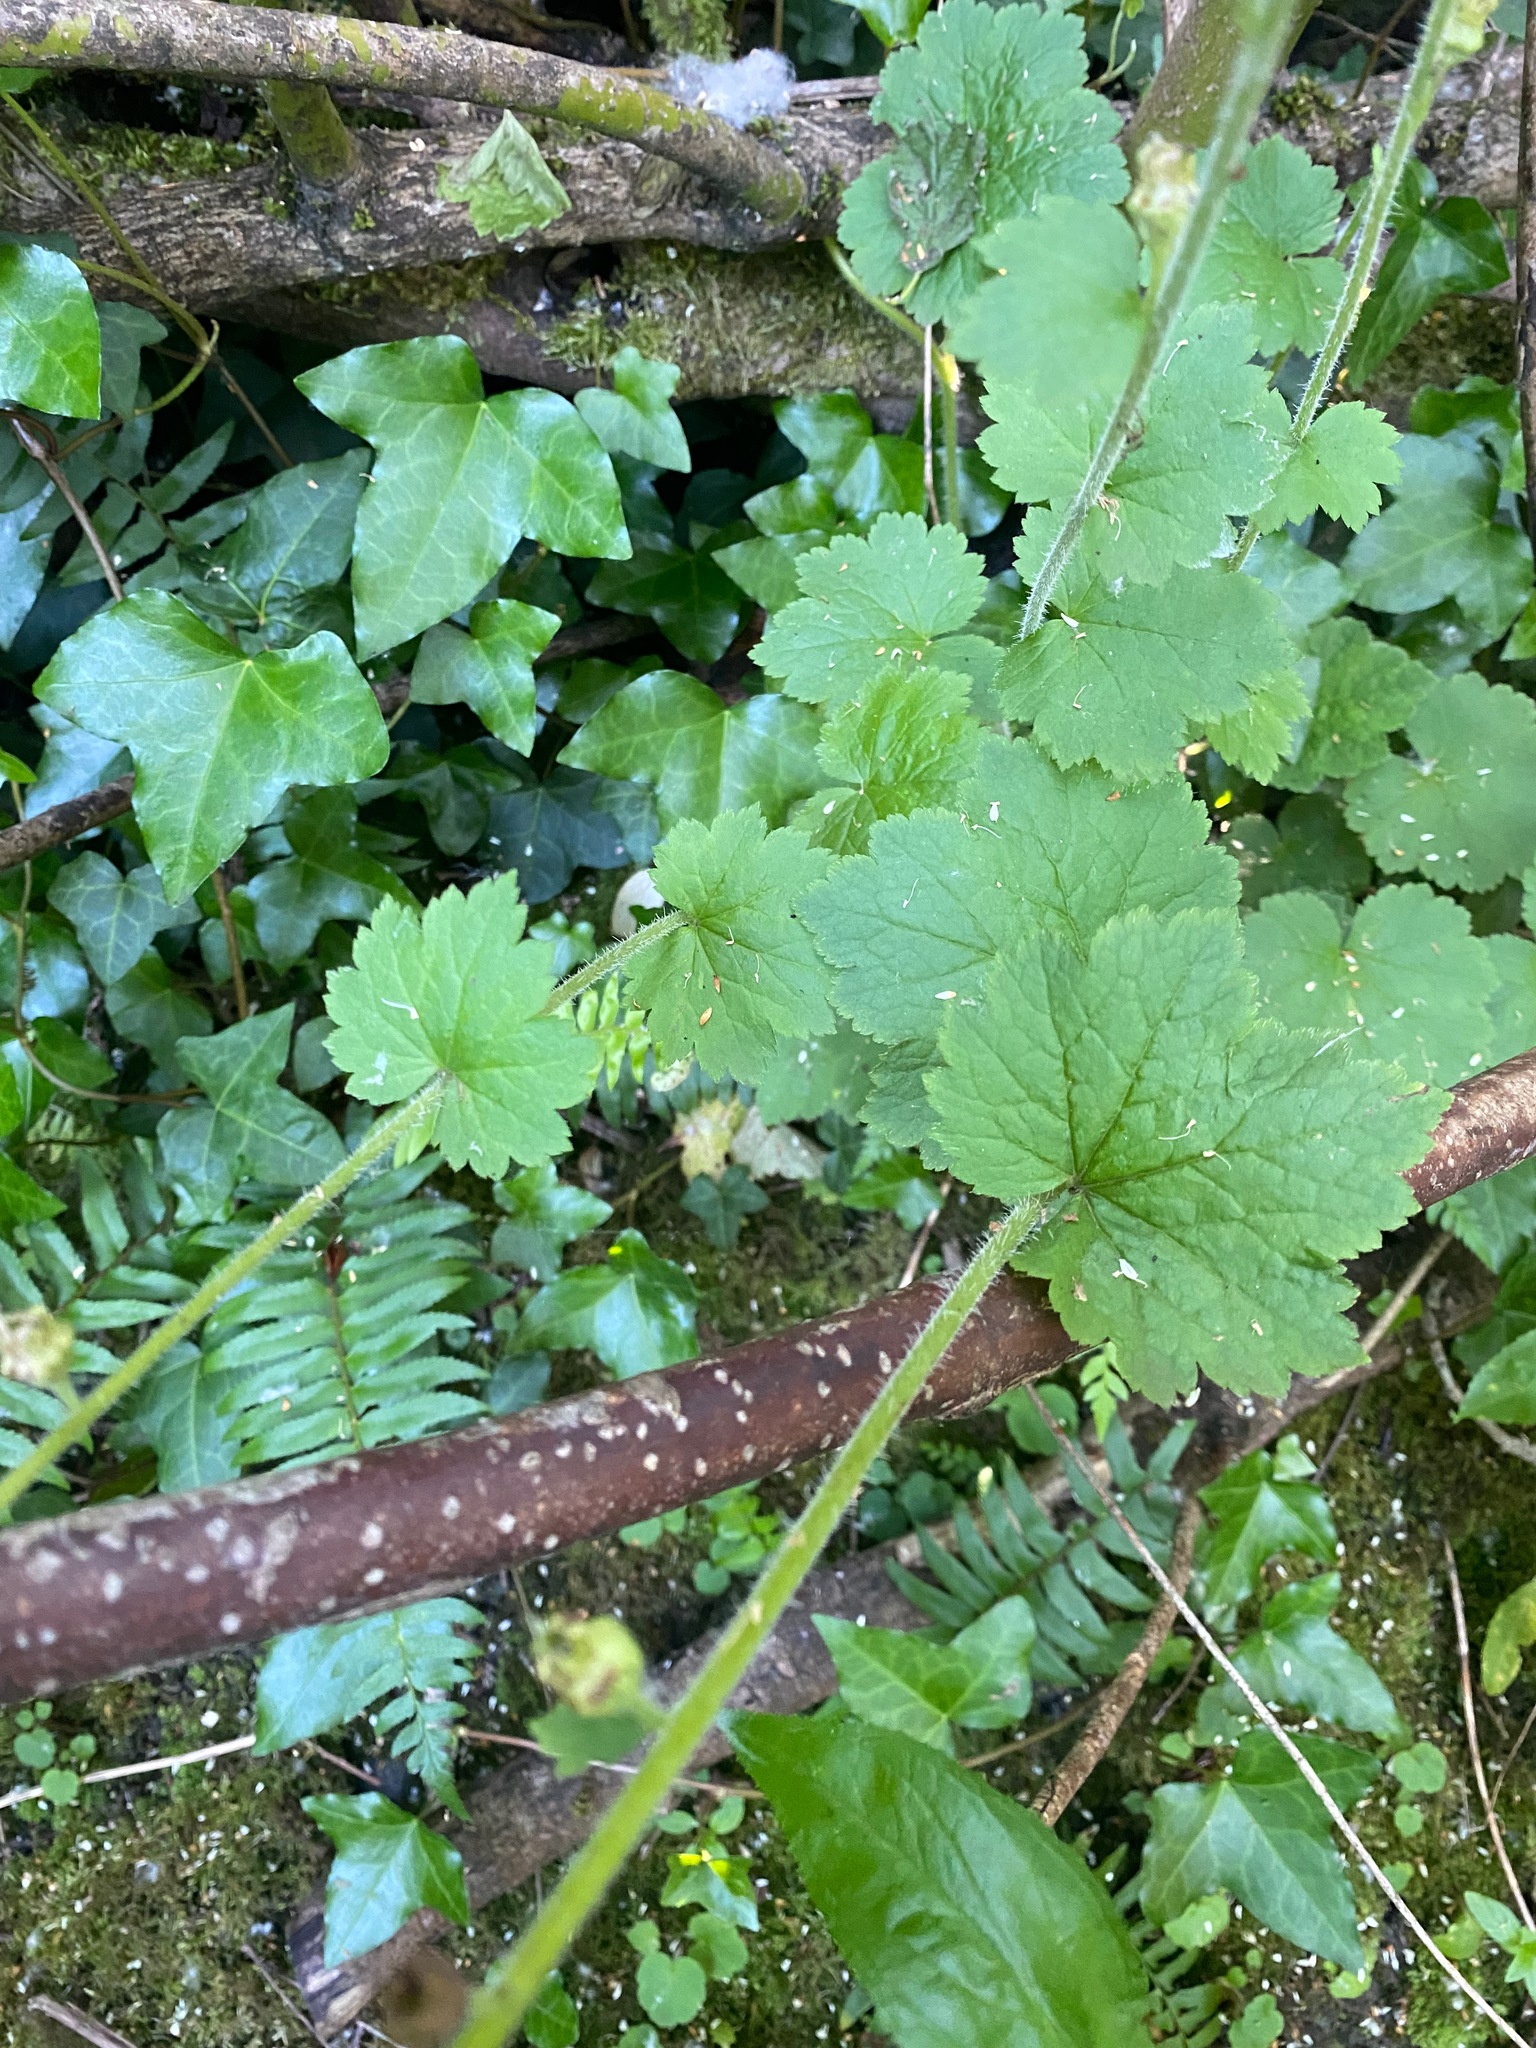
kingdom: Plantae
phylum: Tracheophyta
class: Magnoliopsida
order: Saxifragales
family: Saxifragaceae
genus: Tellima
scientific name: Tellima grandiflora
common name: Fringecups
